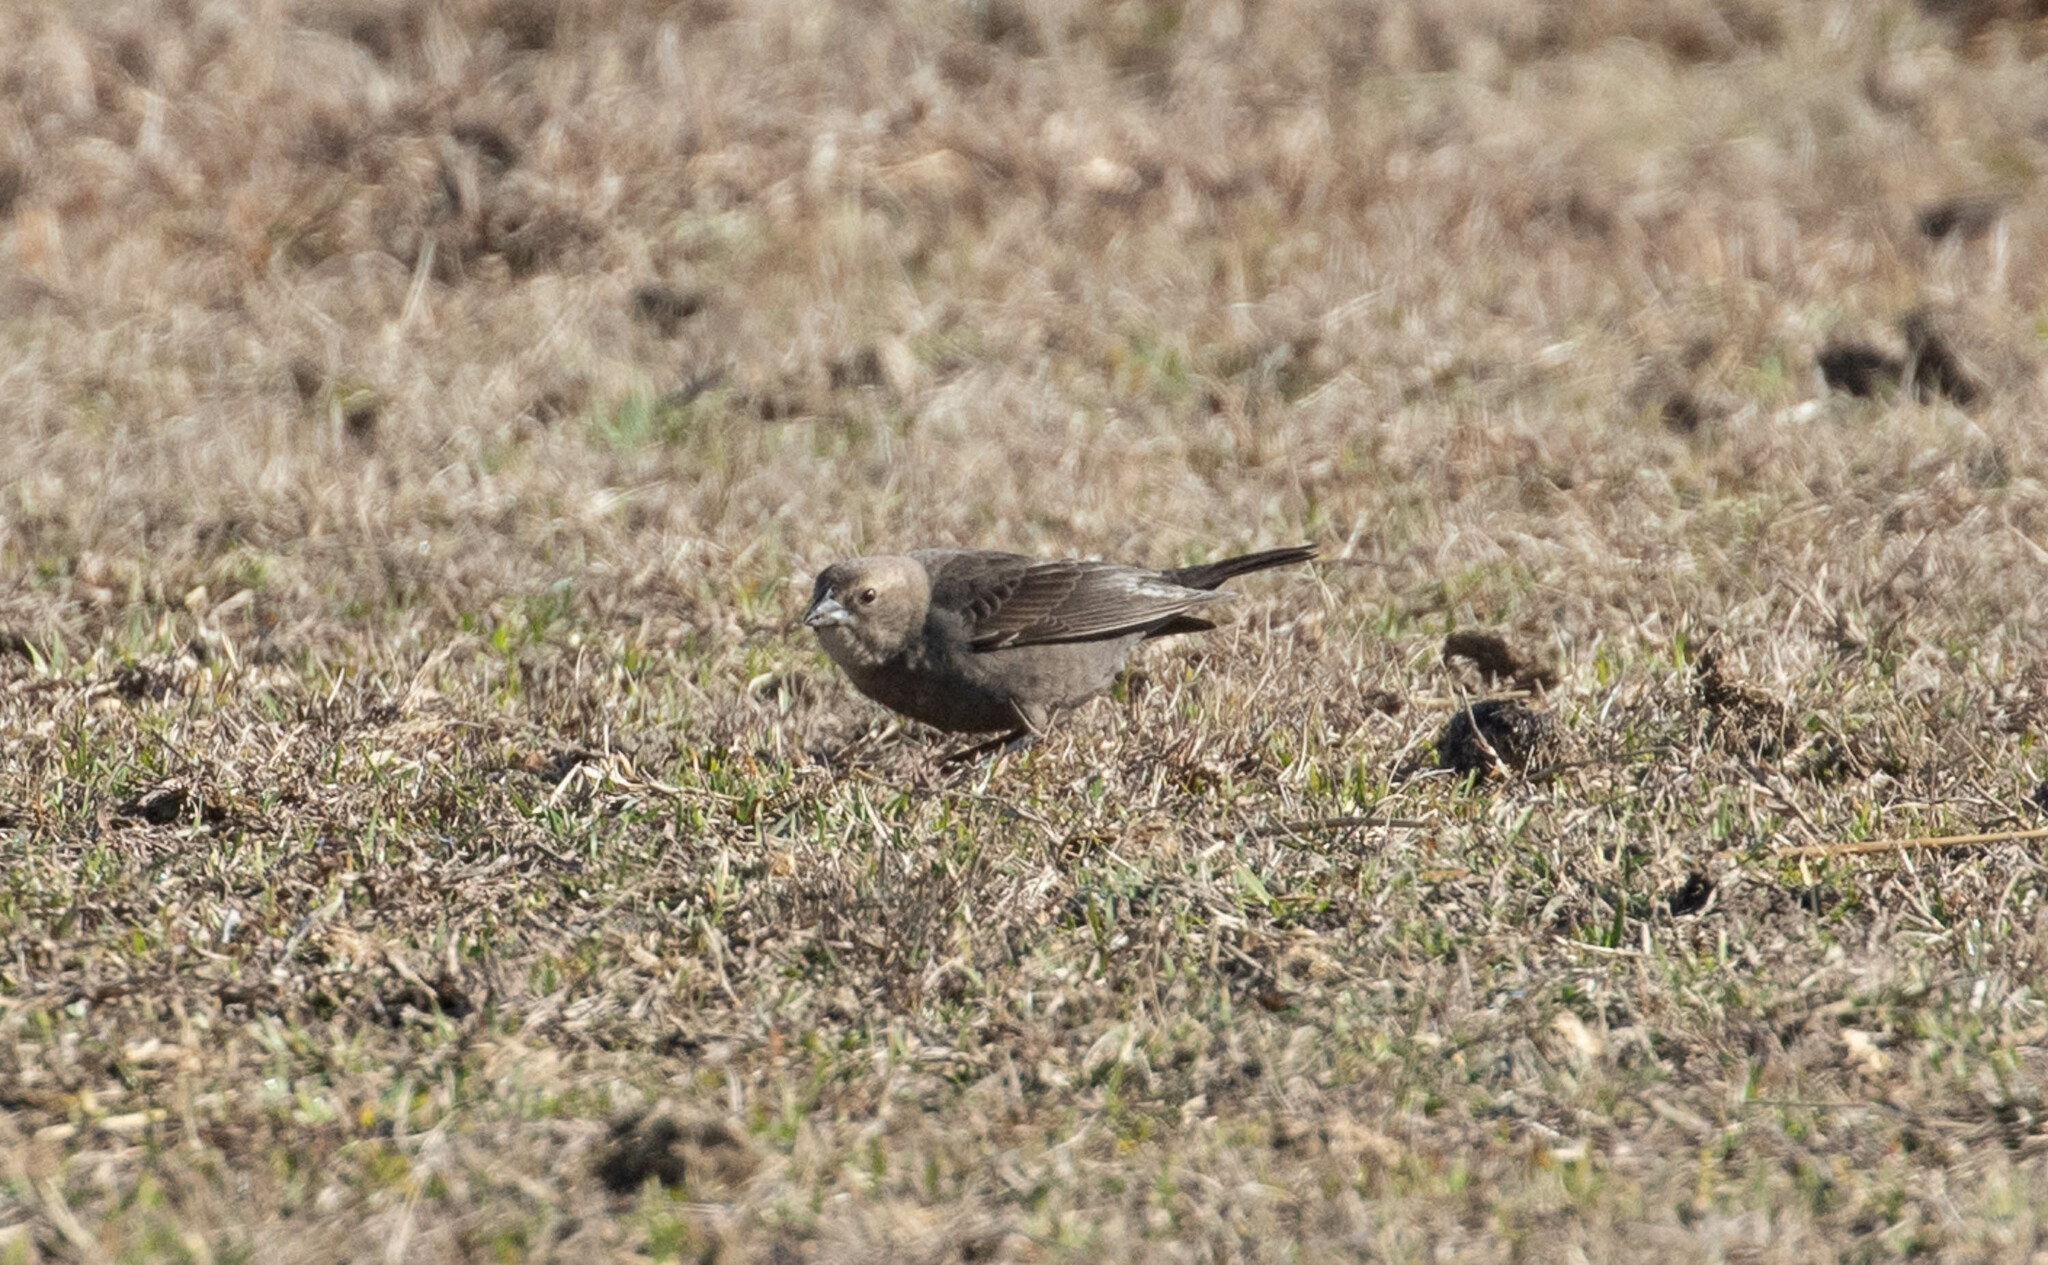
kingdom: Animalia
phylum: Chordata
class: Aves
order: Passeriformes
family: Icteridae
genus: Molothrus
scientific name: Molothrus ater
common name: Brown-headed cowbird
